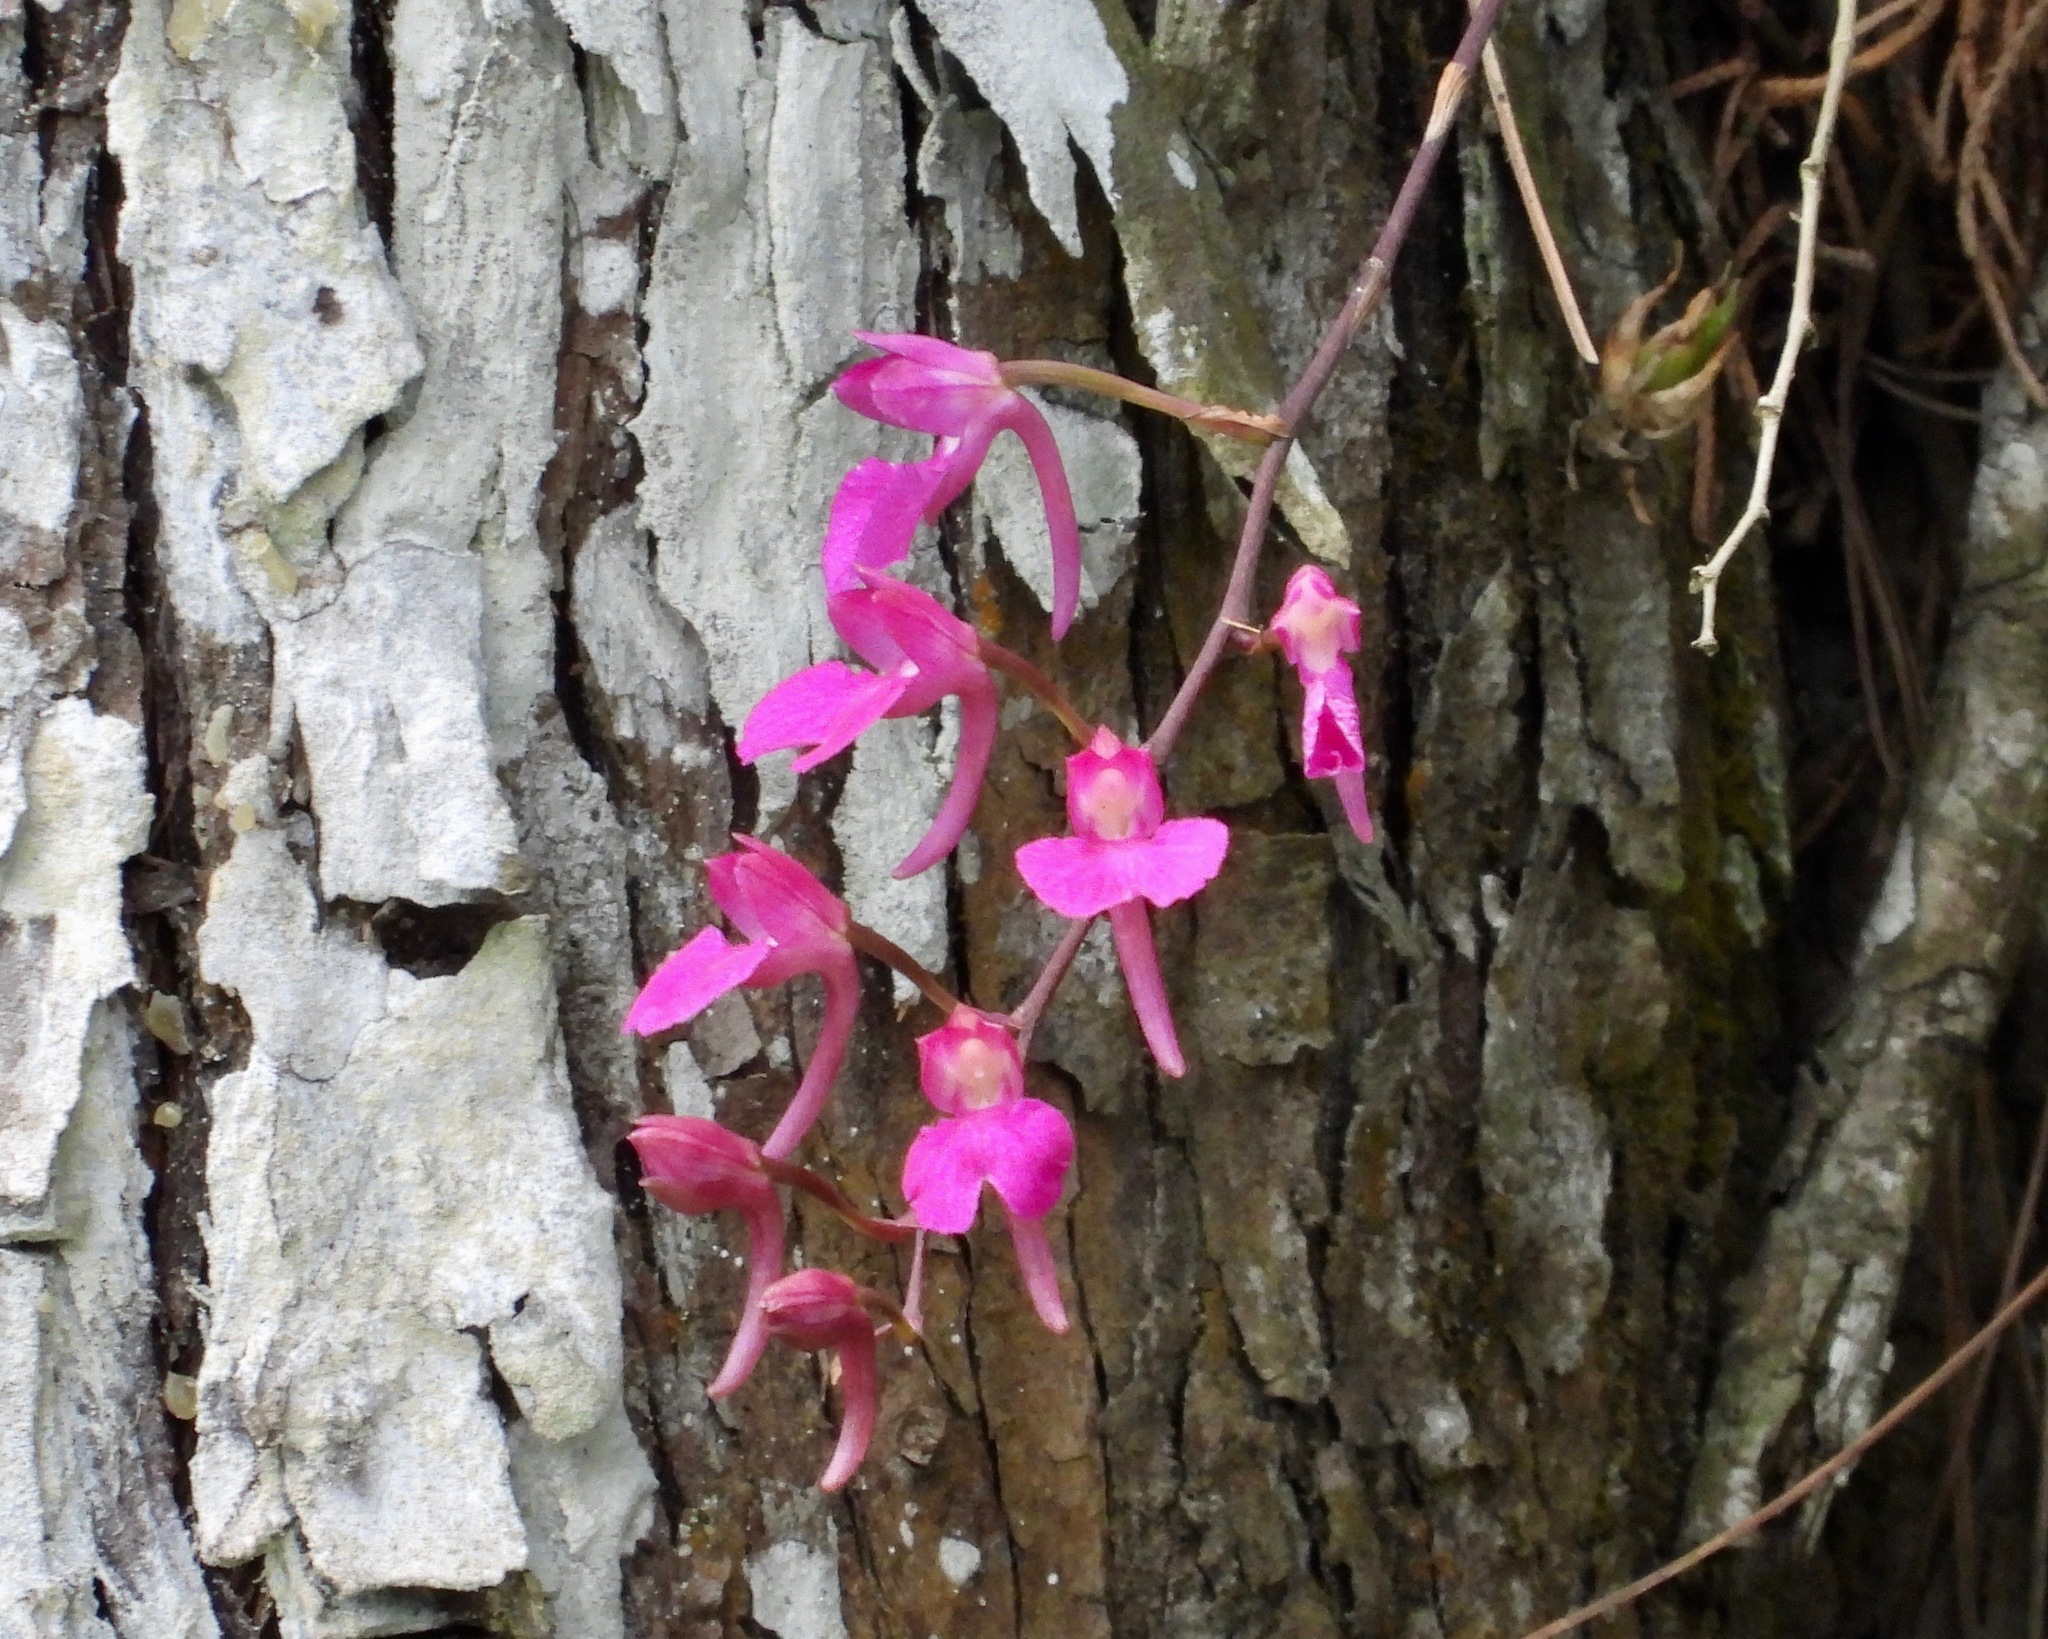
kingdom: Plantae
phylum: Tracheophyta
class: Liliopsida
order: Asparagales
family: Orchidaceae
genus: Comparettia
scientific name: Comparettia falcata
